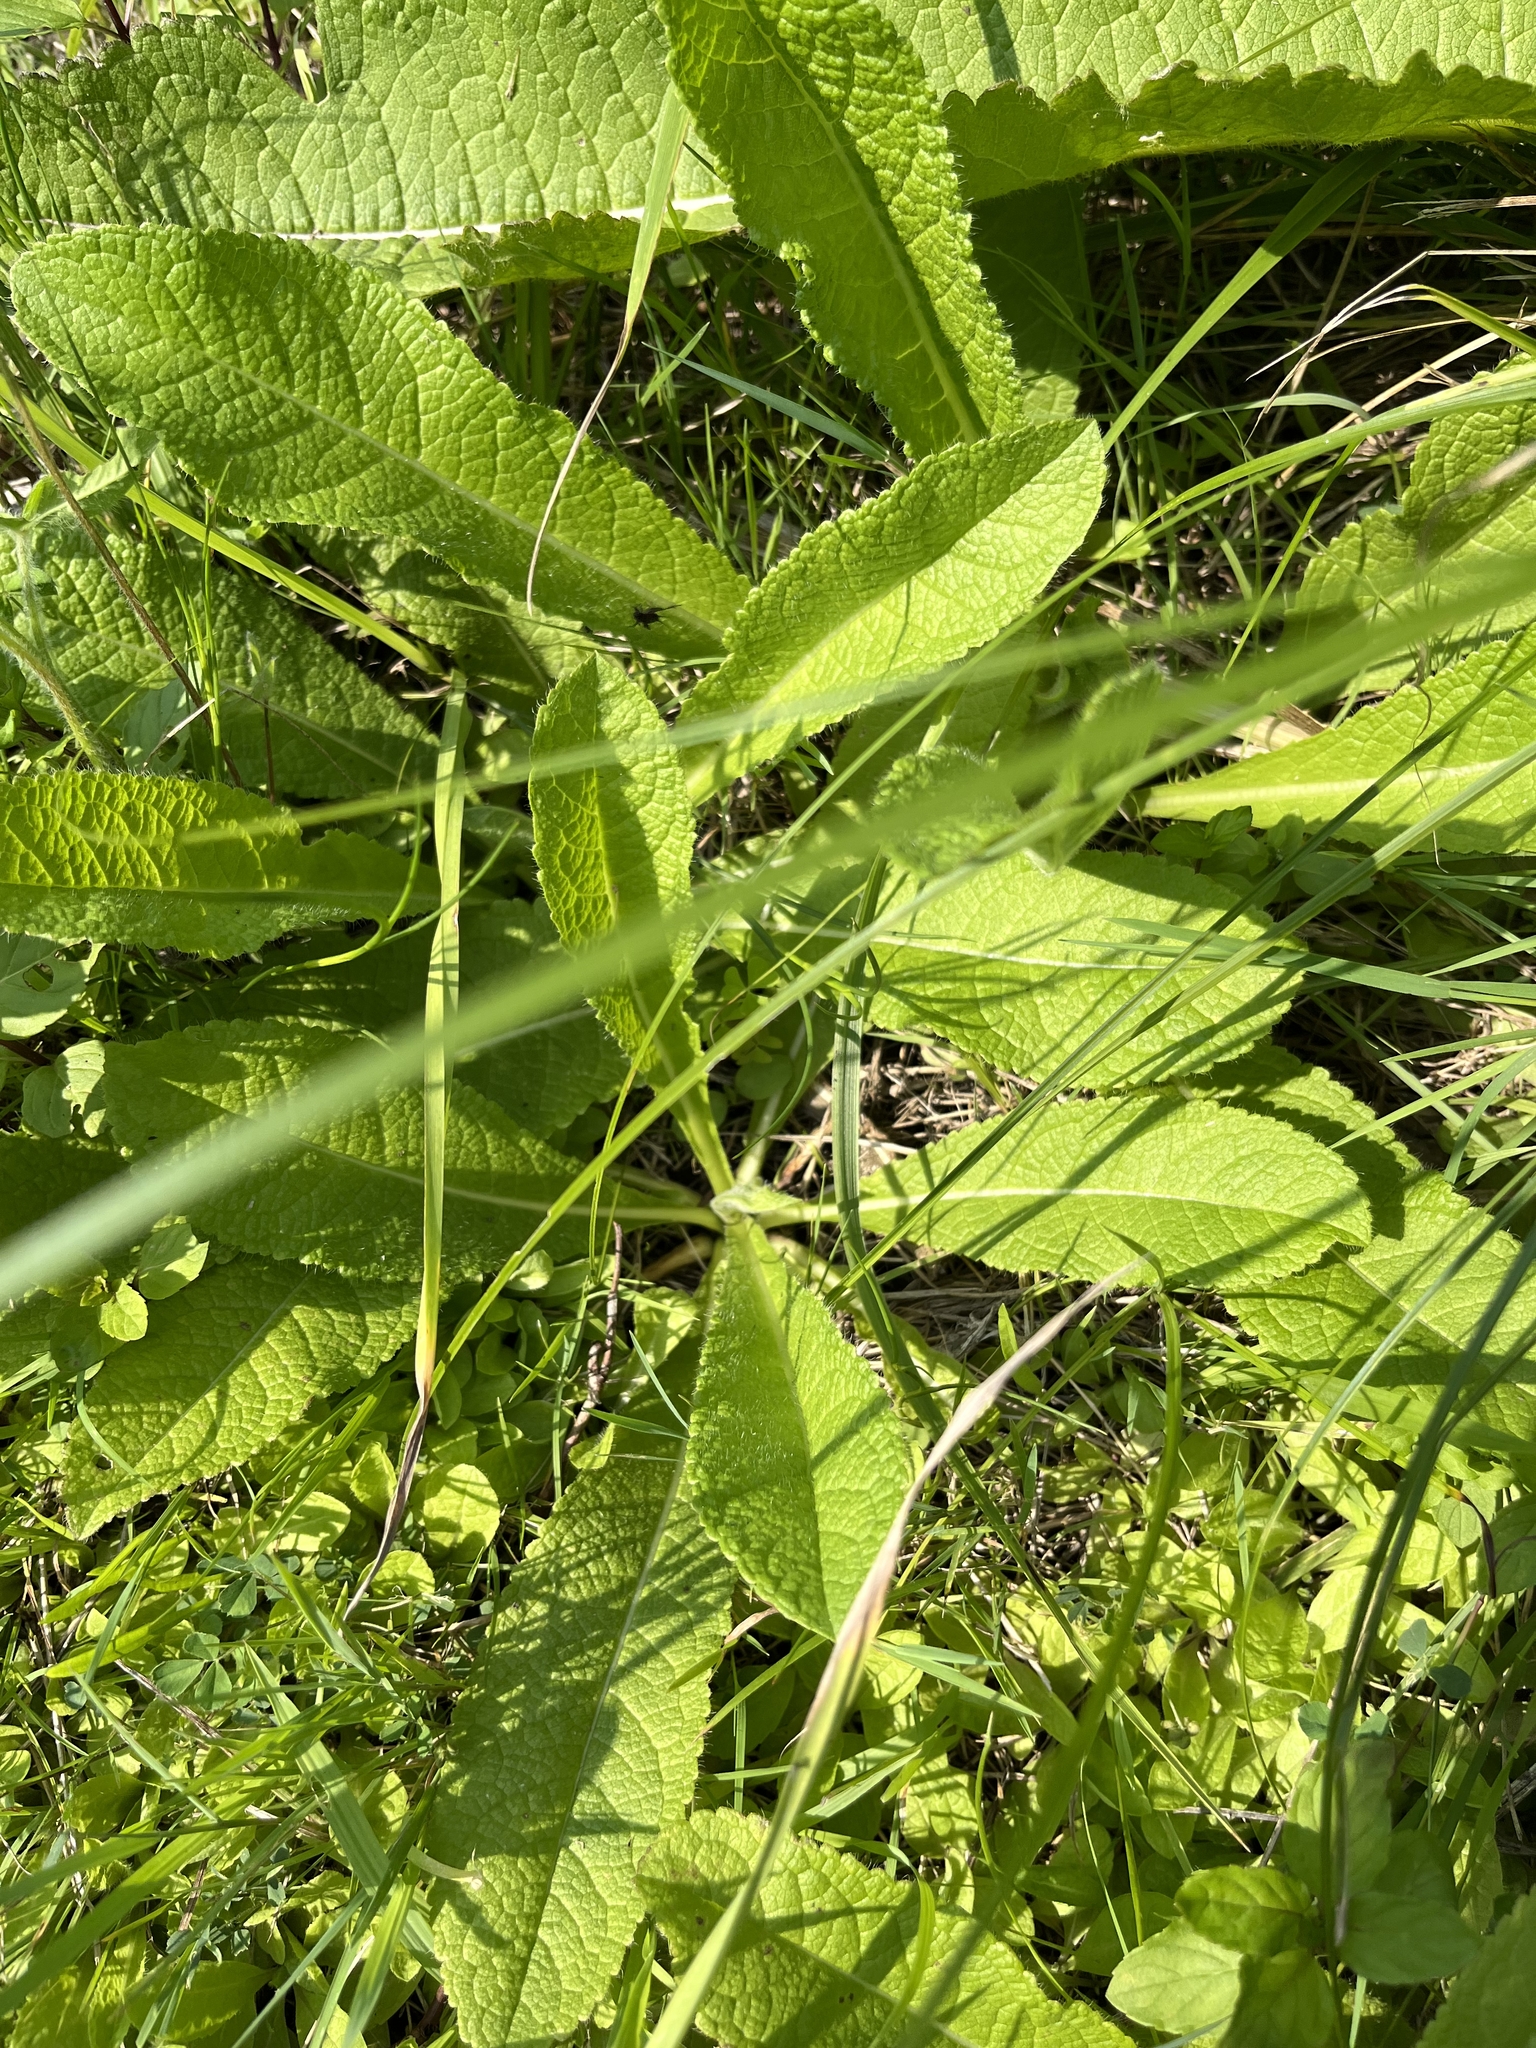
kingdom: Plantae
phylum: Tracheophyta
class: Magnoliopsida
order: Dipsacales
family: Caprifoliaceae
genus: Dipsacus
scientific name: Dipsacus laciniatus
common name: Cut-leaved teasel
